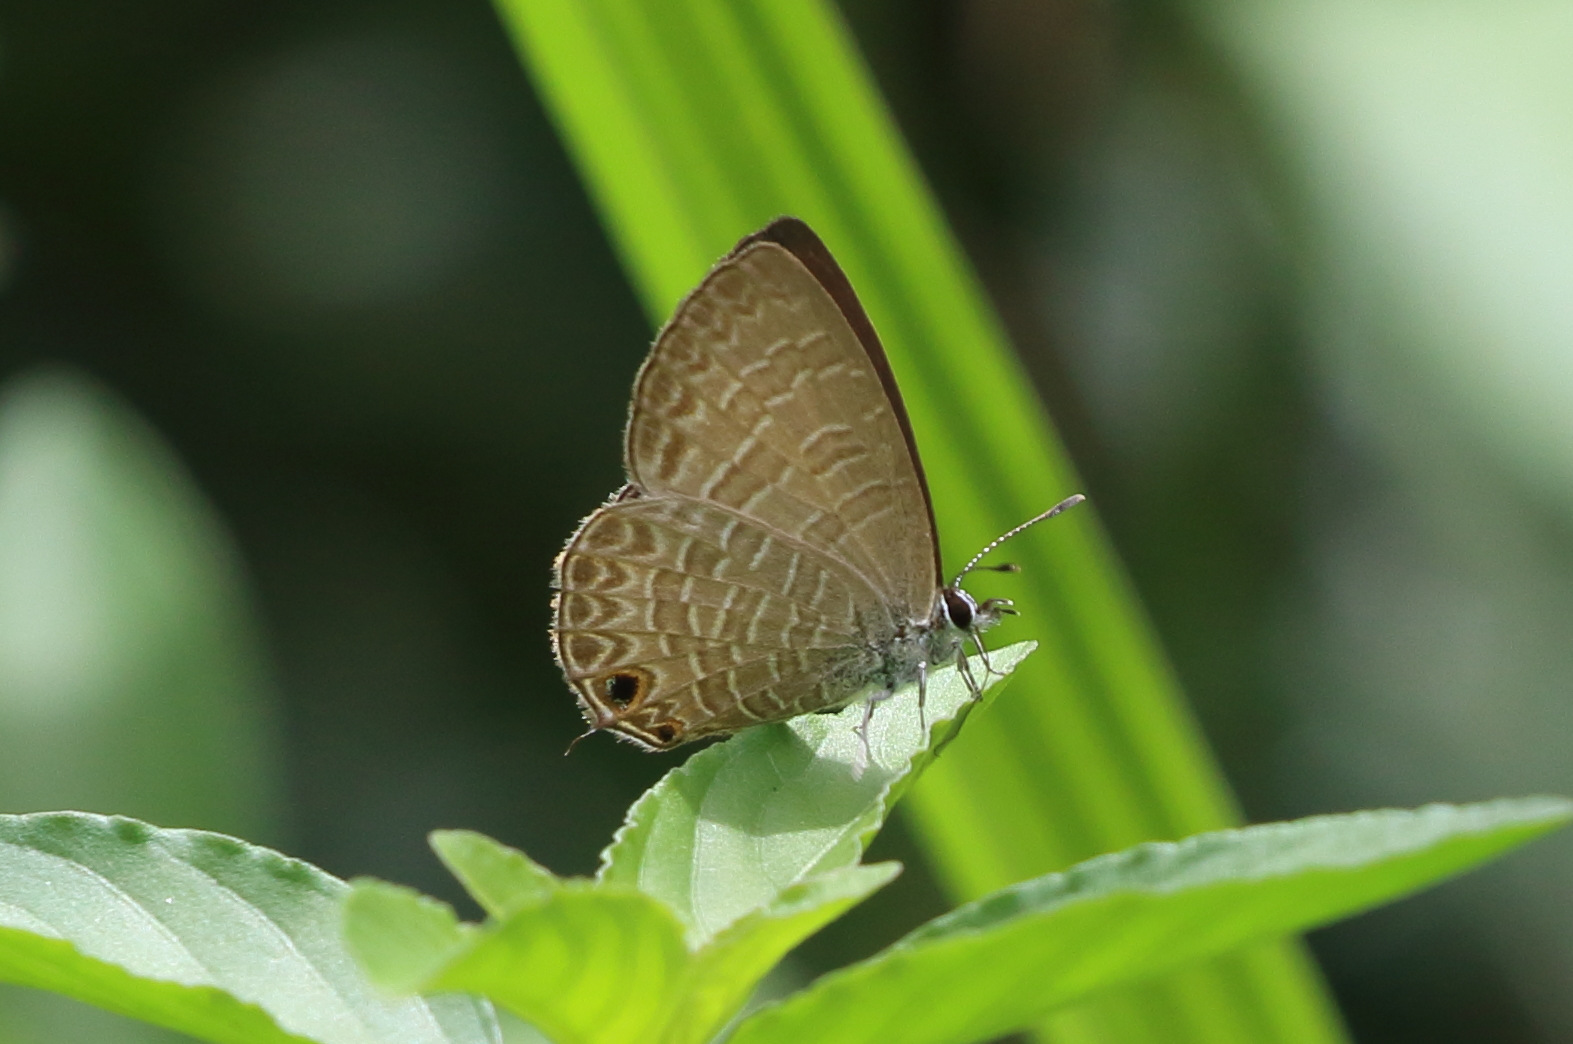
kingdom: Animalia
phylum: Arthropoda
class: Insecta
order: Lepidoptera
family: Lycaenidae
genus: Nacaduba
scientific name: Nacaduba berenice
